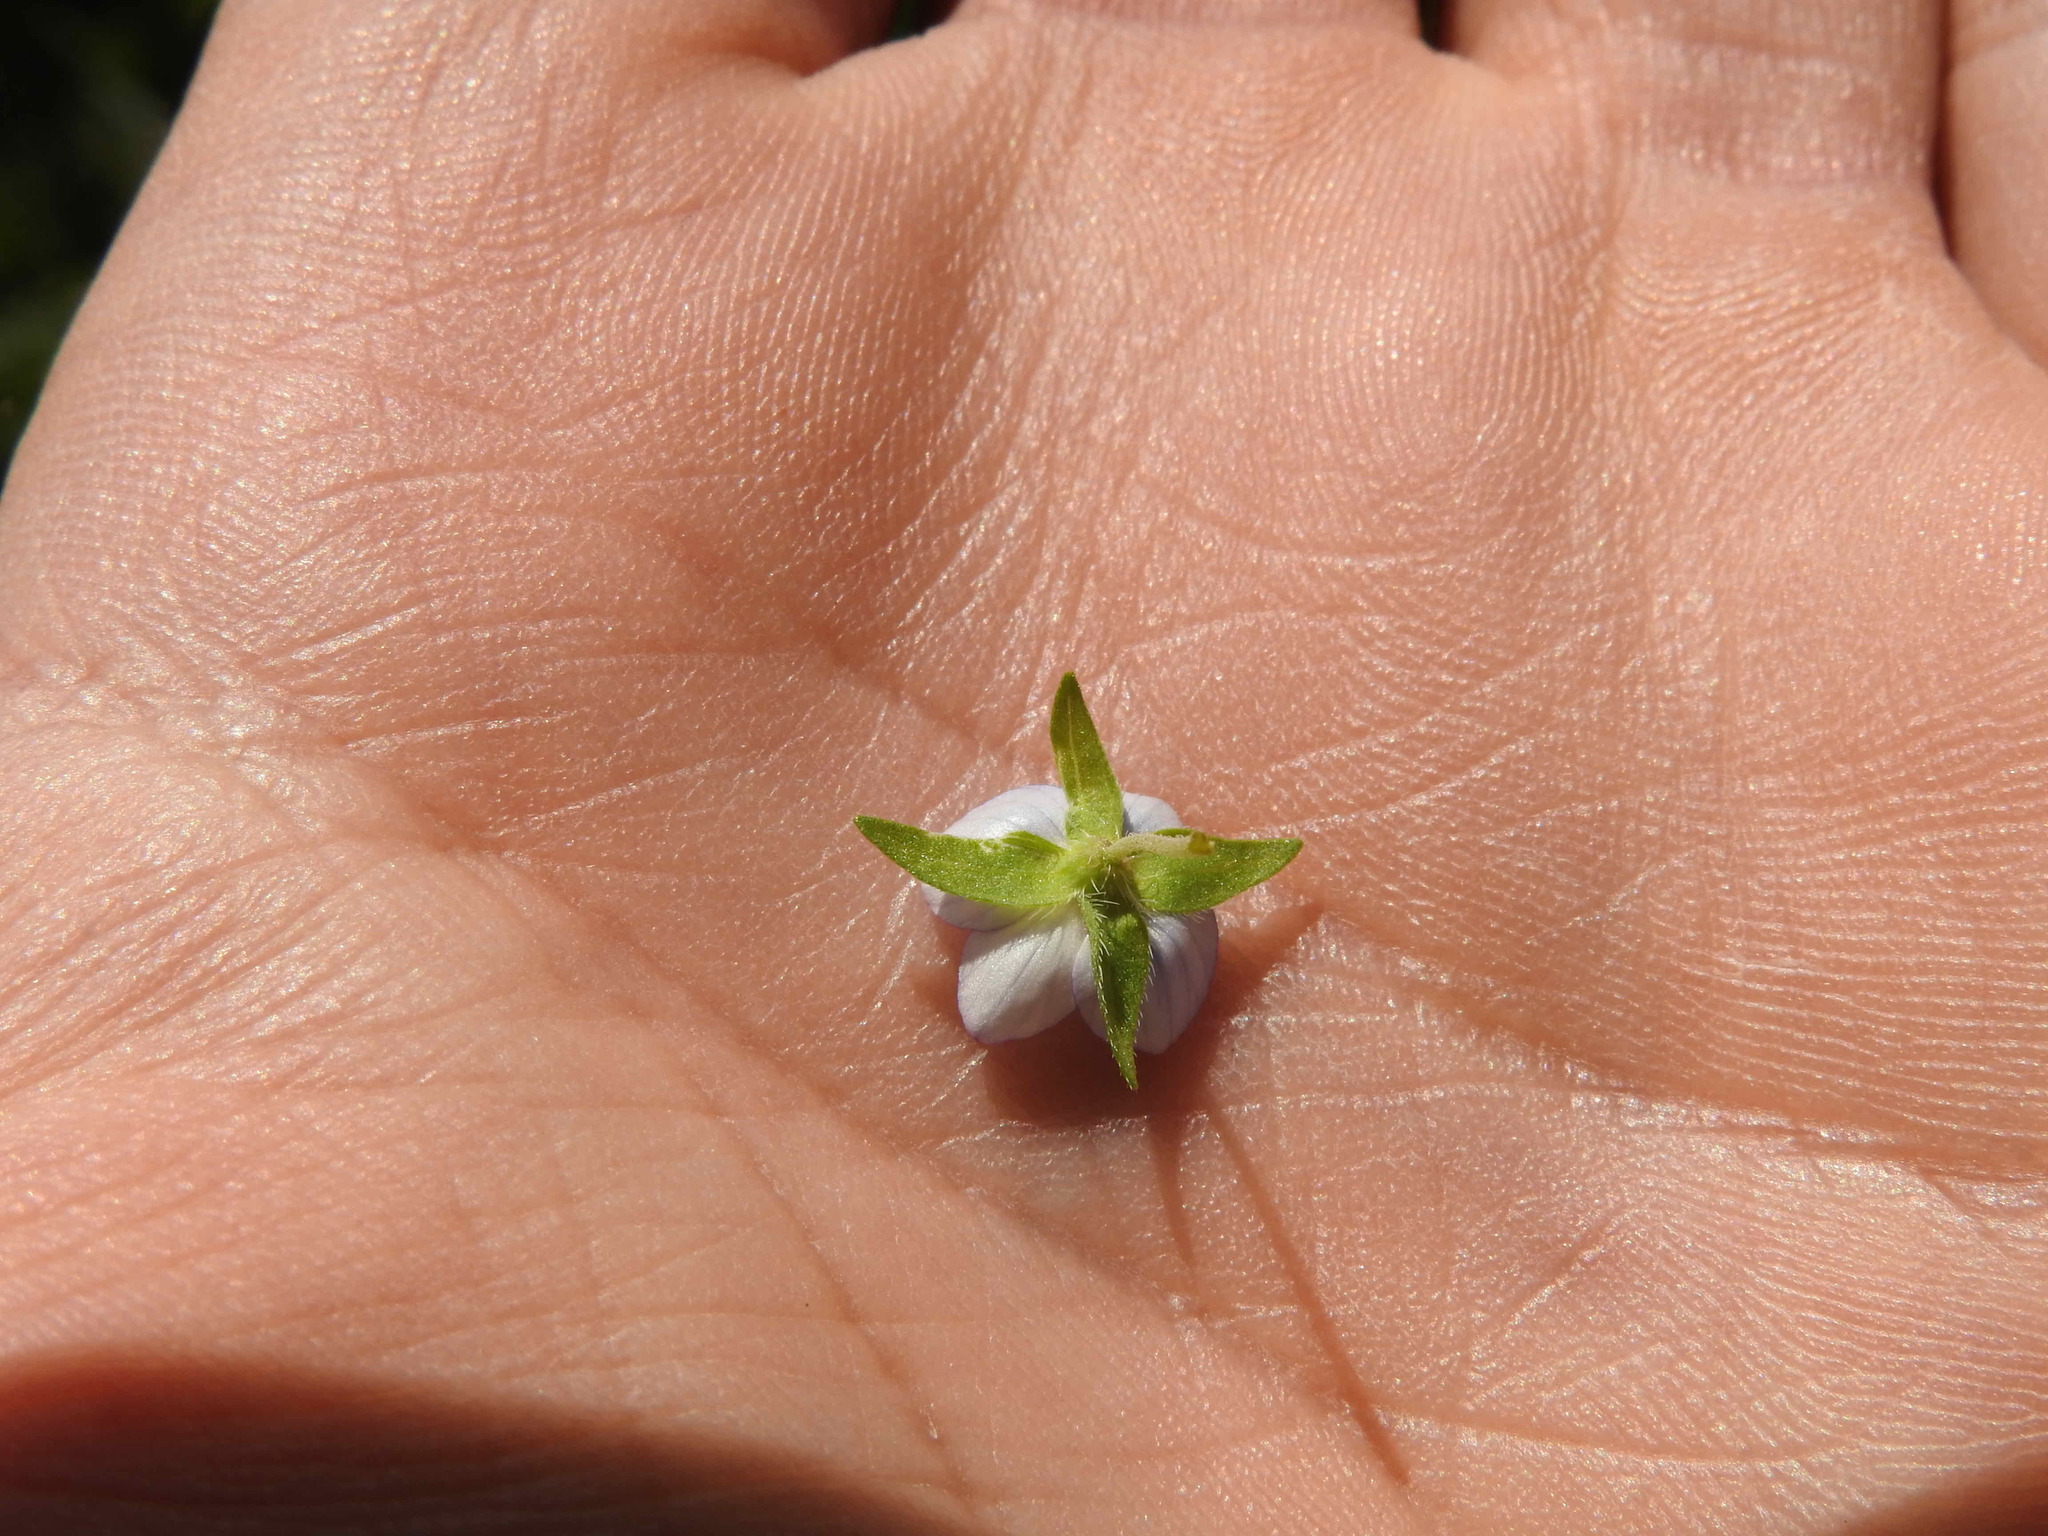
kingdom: Plantae
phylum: Tracheophyta
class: Magnoliopsida
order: Lamiales
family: Plantaginaceae
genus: Veronica
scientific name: Veronica persica
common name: Common field-speedwell
